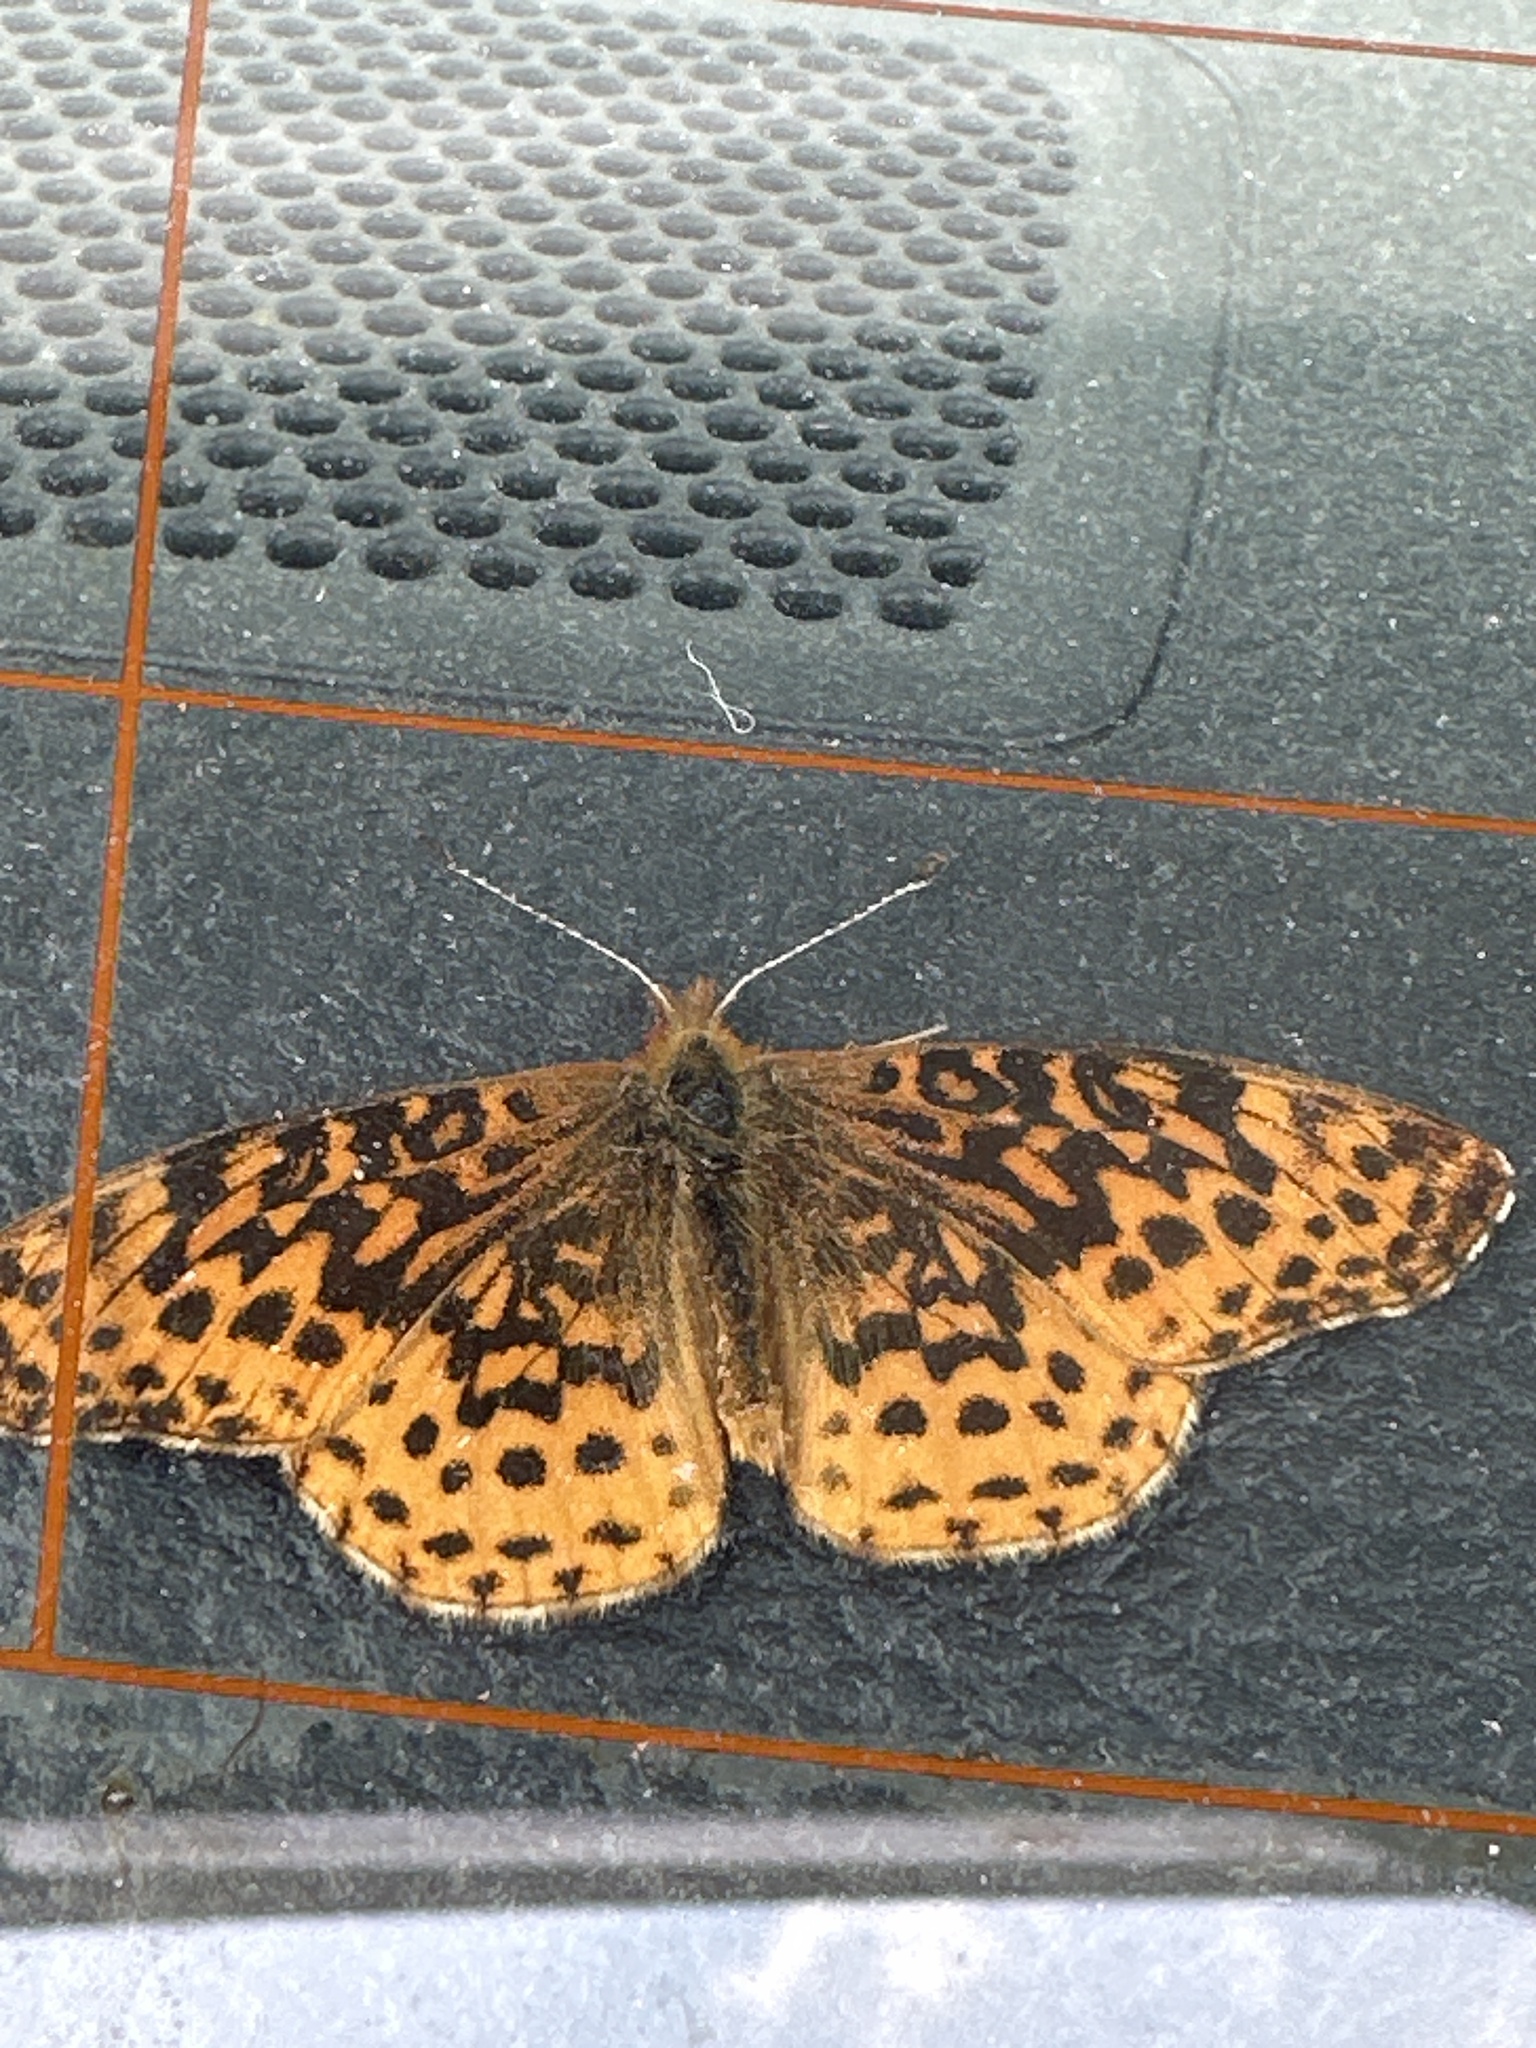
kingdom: Animalia
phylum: Arthropoda
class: Insecta
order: Lepidoptera
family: Nymphalidae
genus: Clossiana
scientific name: Clossiana toddi
